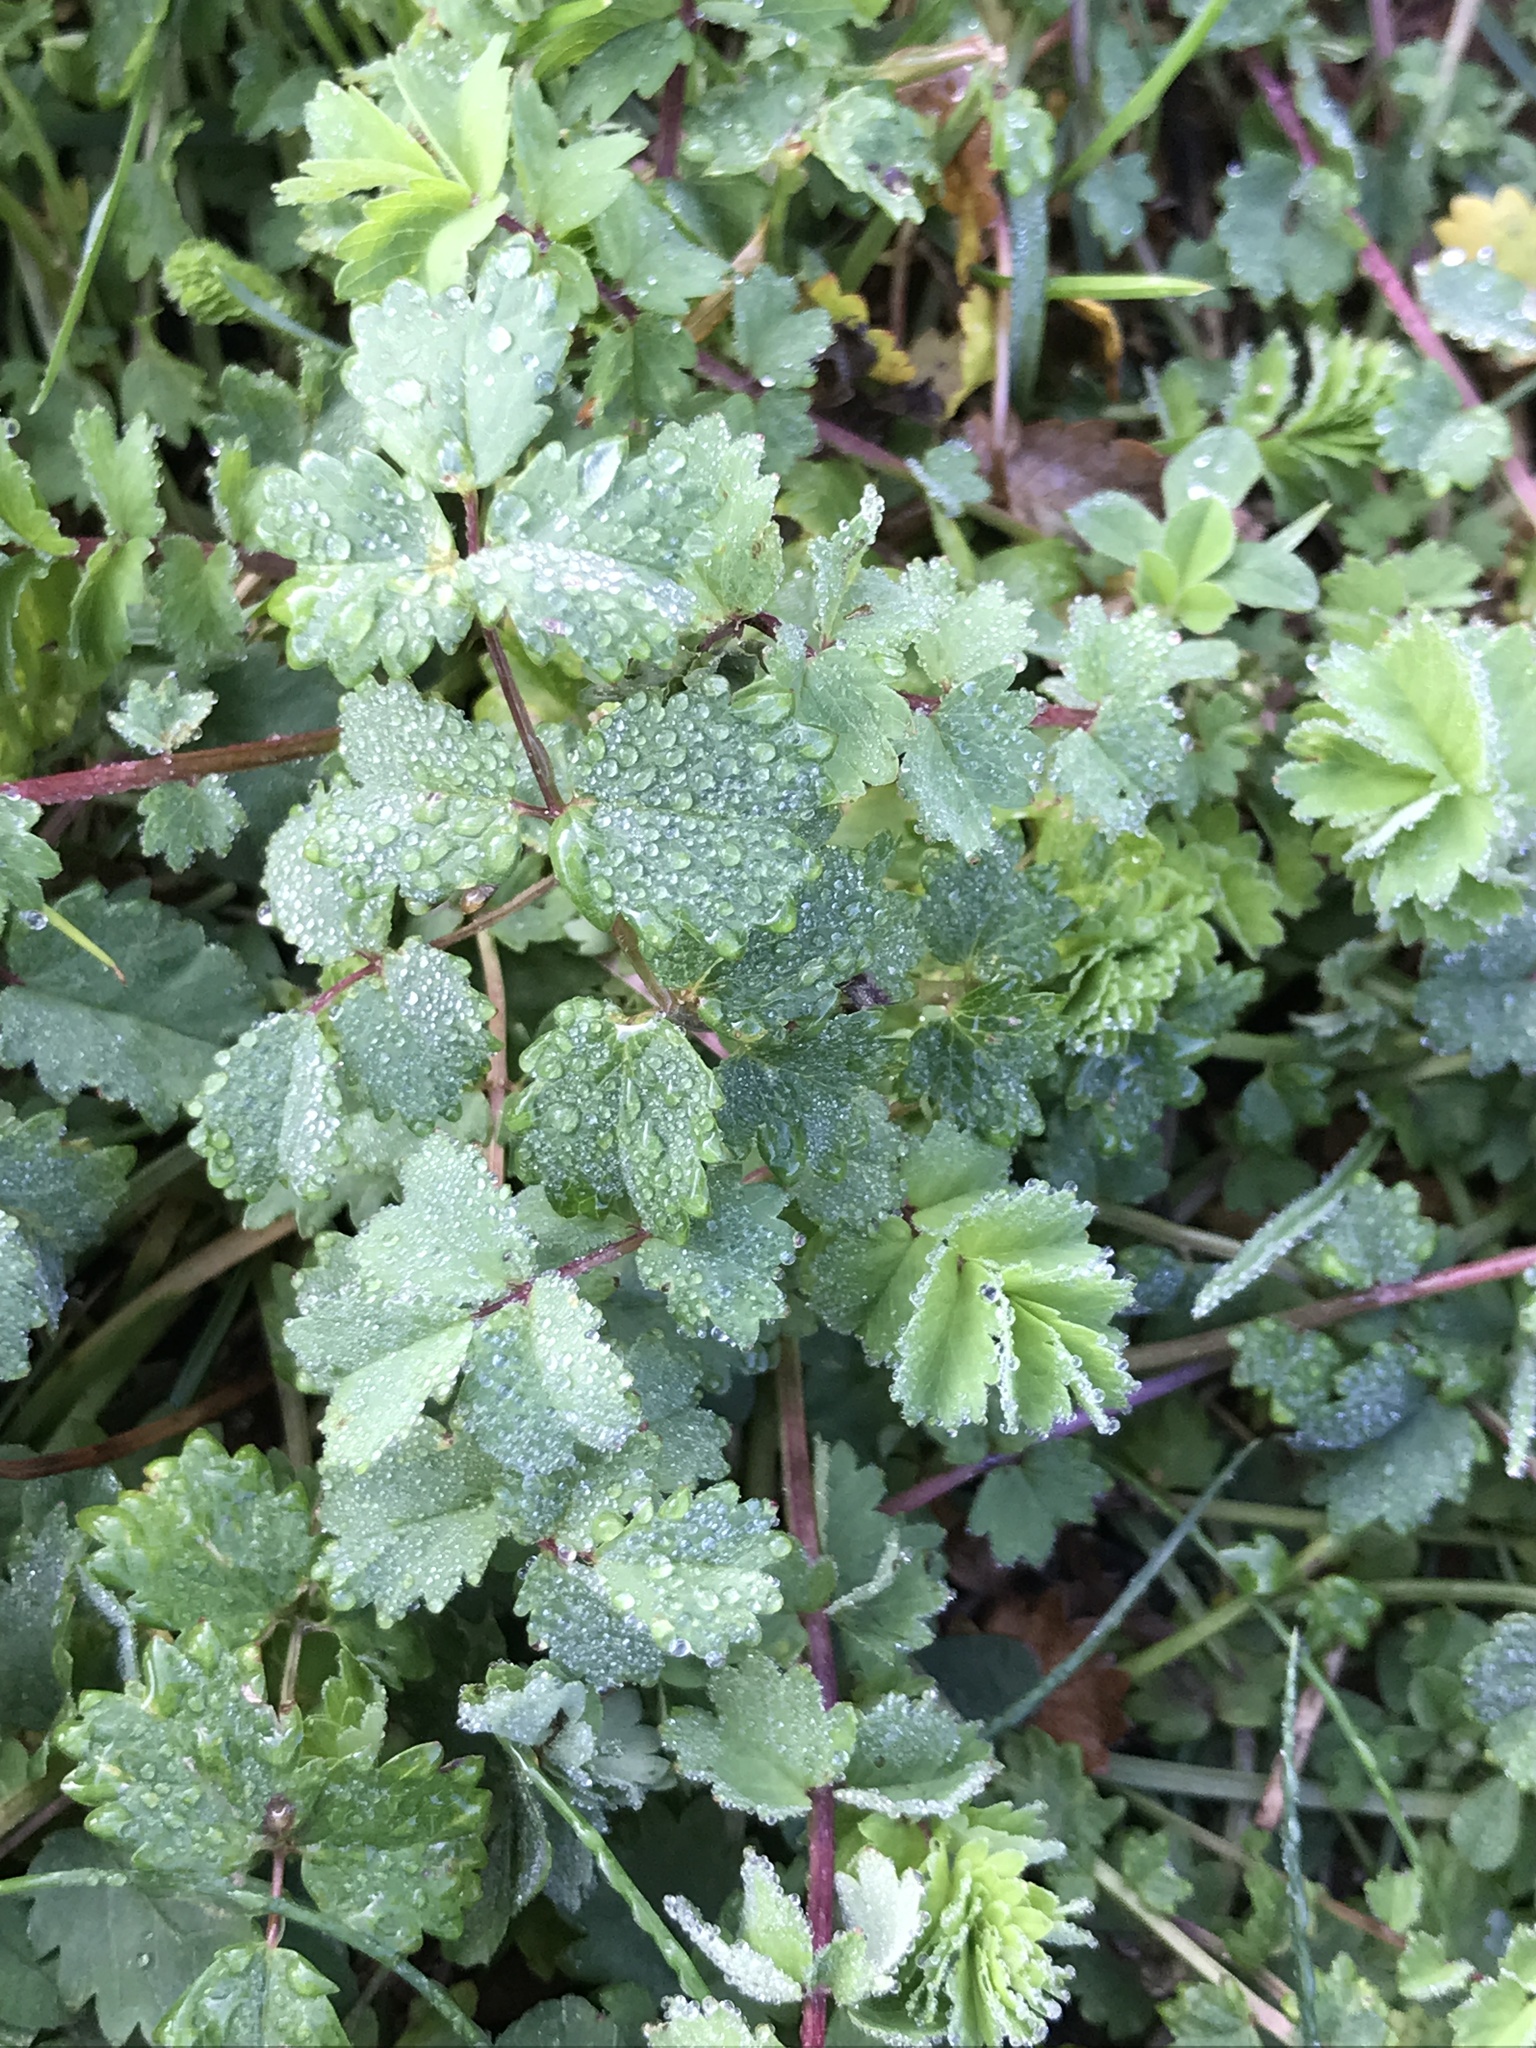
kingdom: Plantae
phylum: Tracheophyta
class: Magnoliopsida
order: Rosales
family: Rosaceae
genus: Poterium
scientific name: Poterium sanguisorba
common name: Salad burnet
